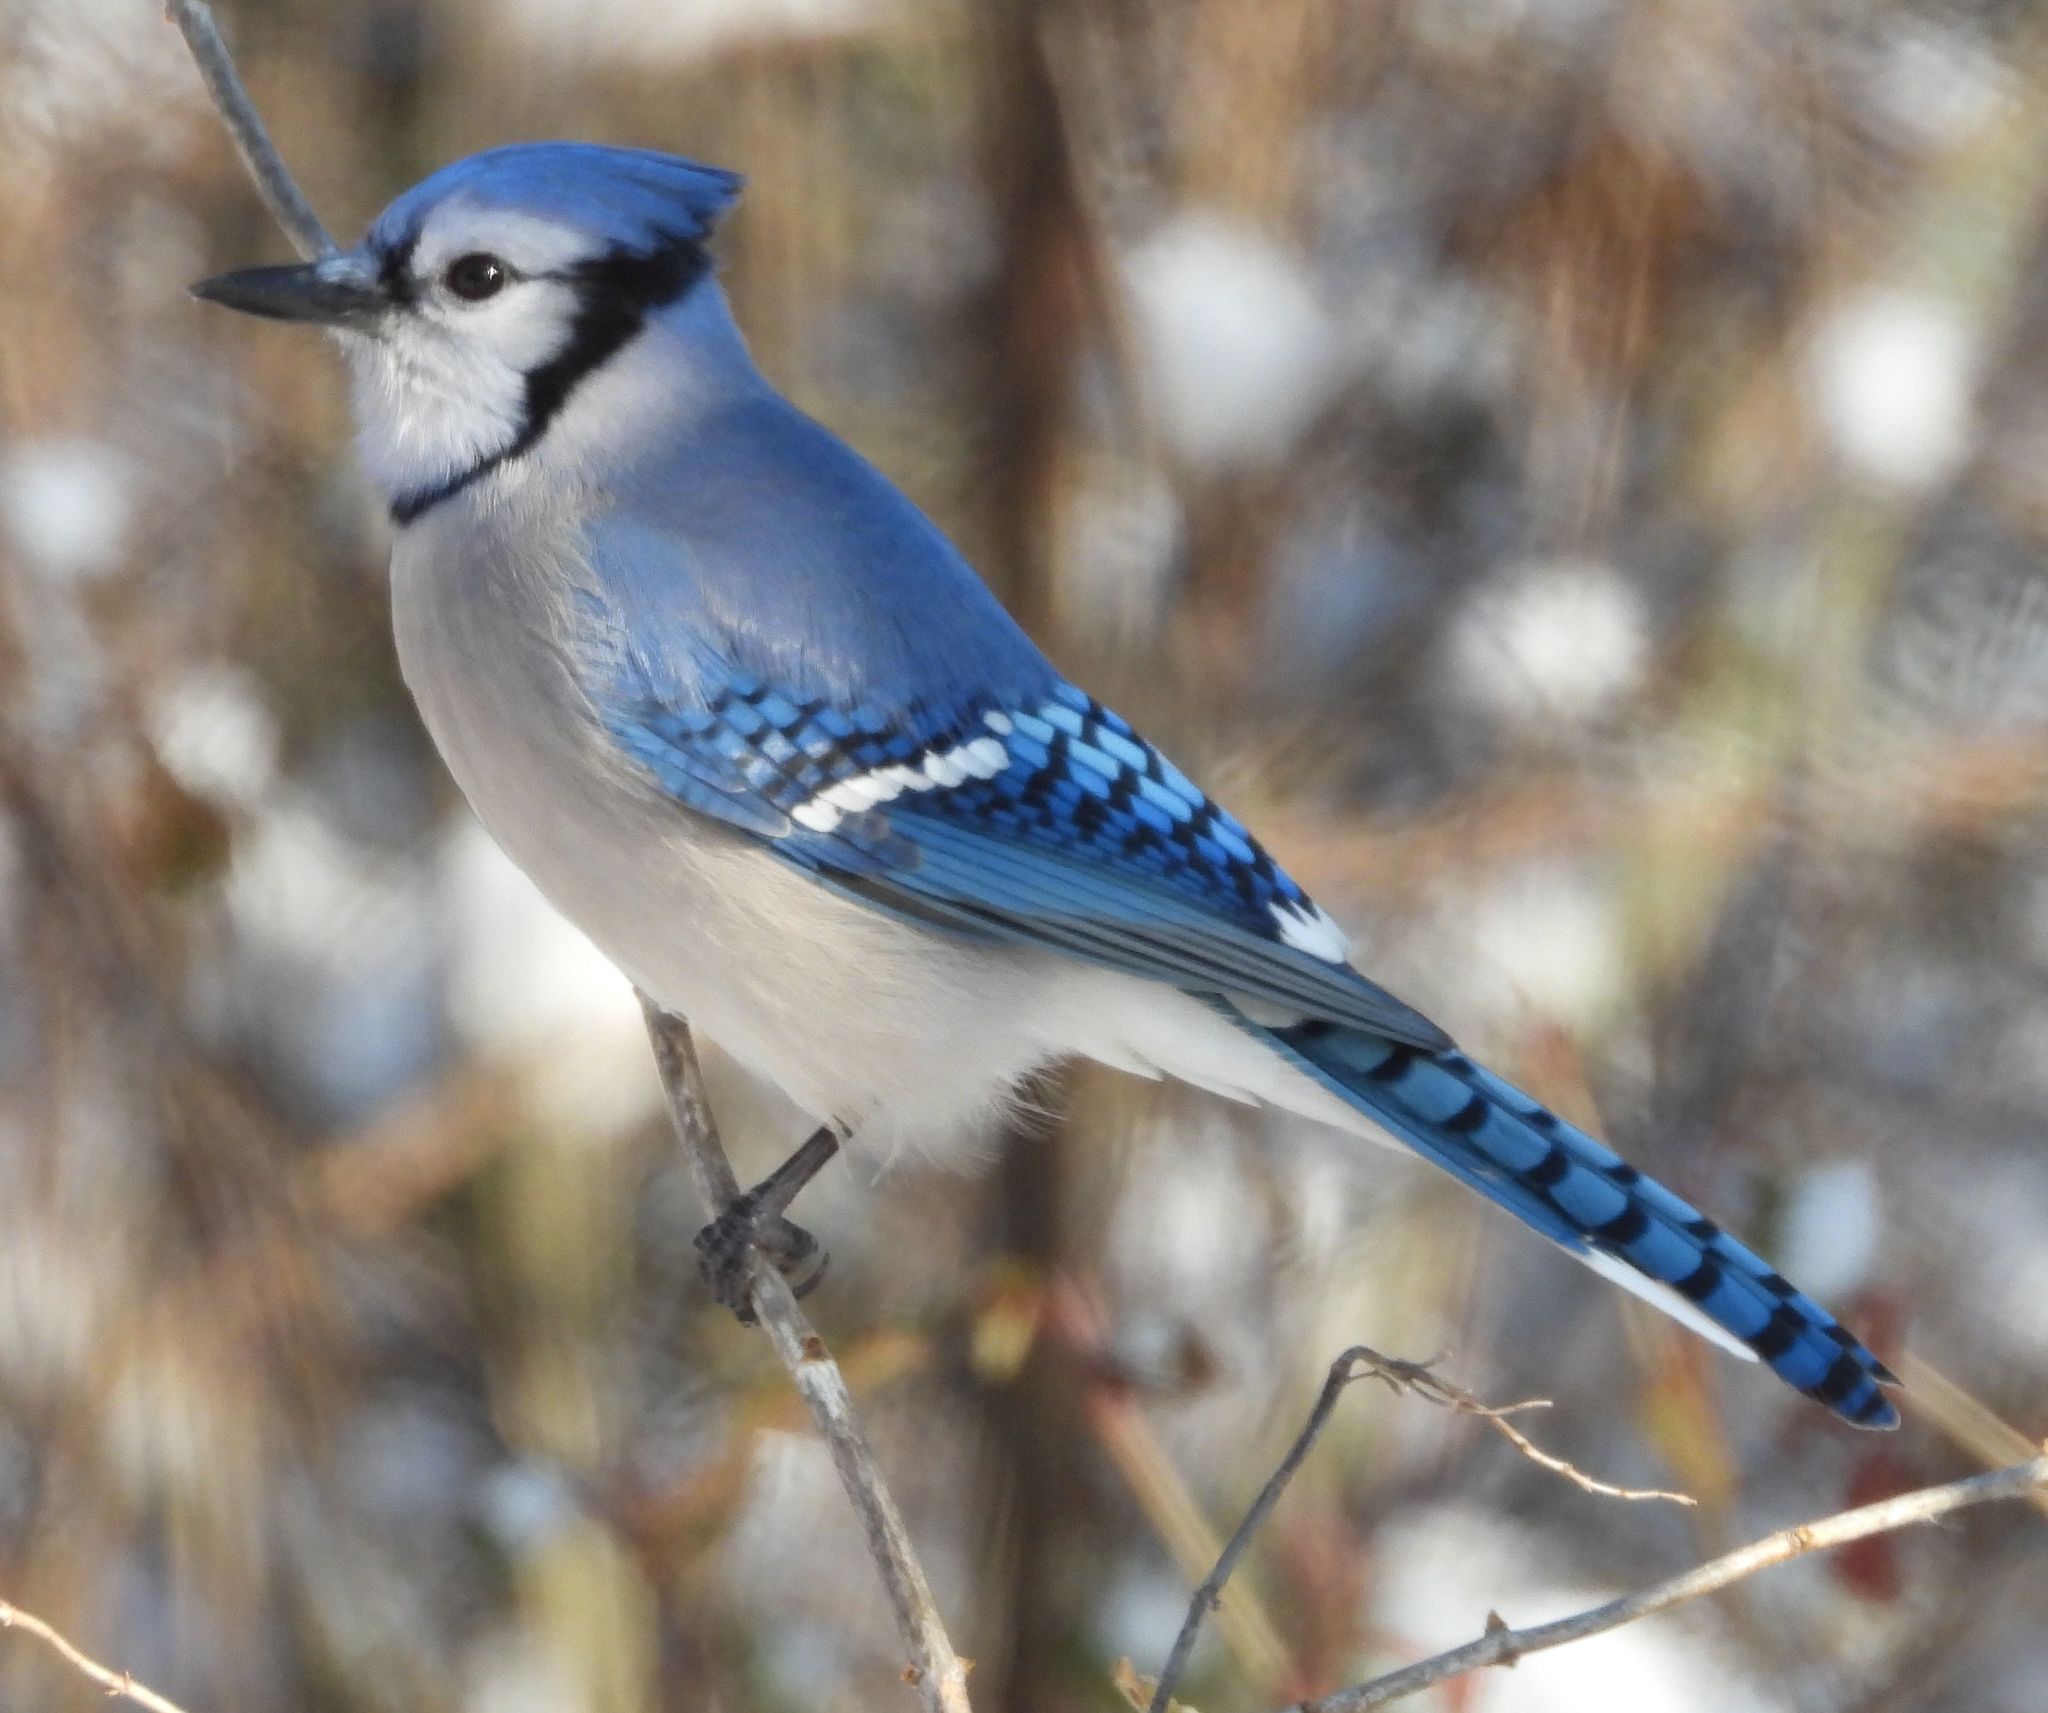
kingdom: Animalia
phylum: Chordata
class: Aves
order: Passeriformes
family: Corvidae
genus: Cyanocitta
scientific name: Cyanocitta cristata
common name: Blue jay
